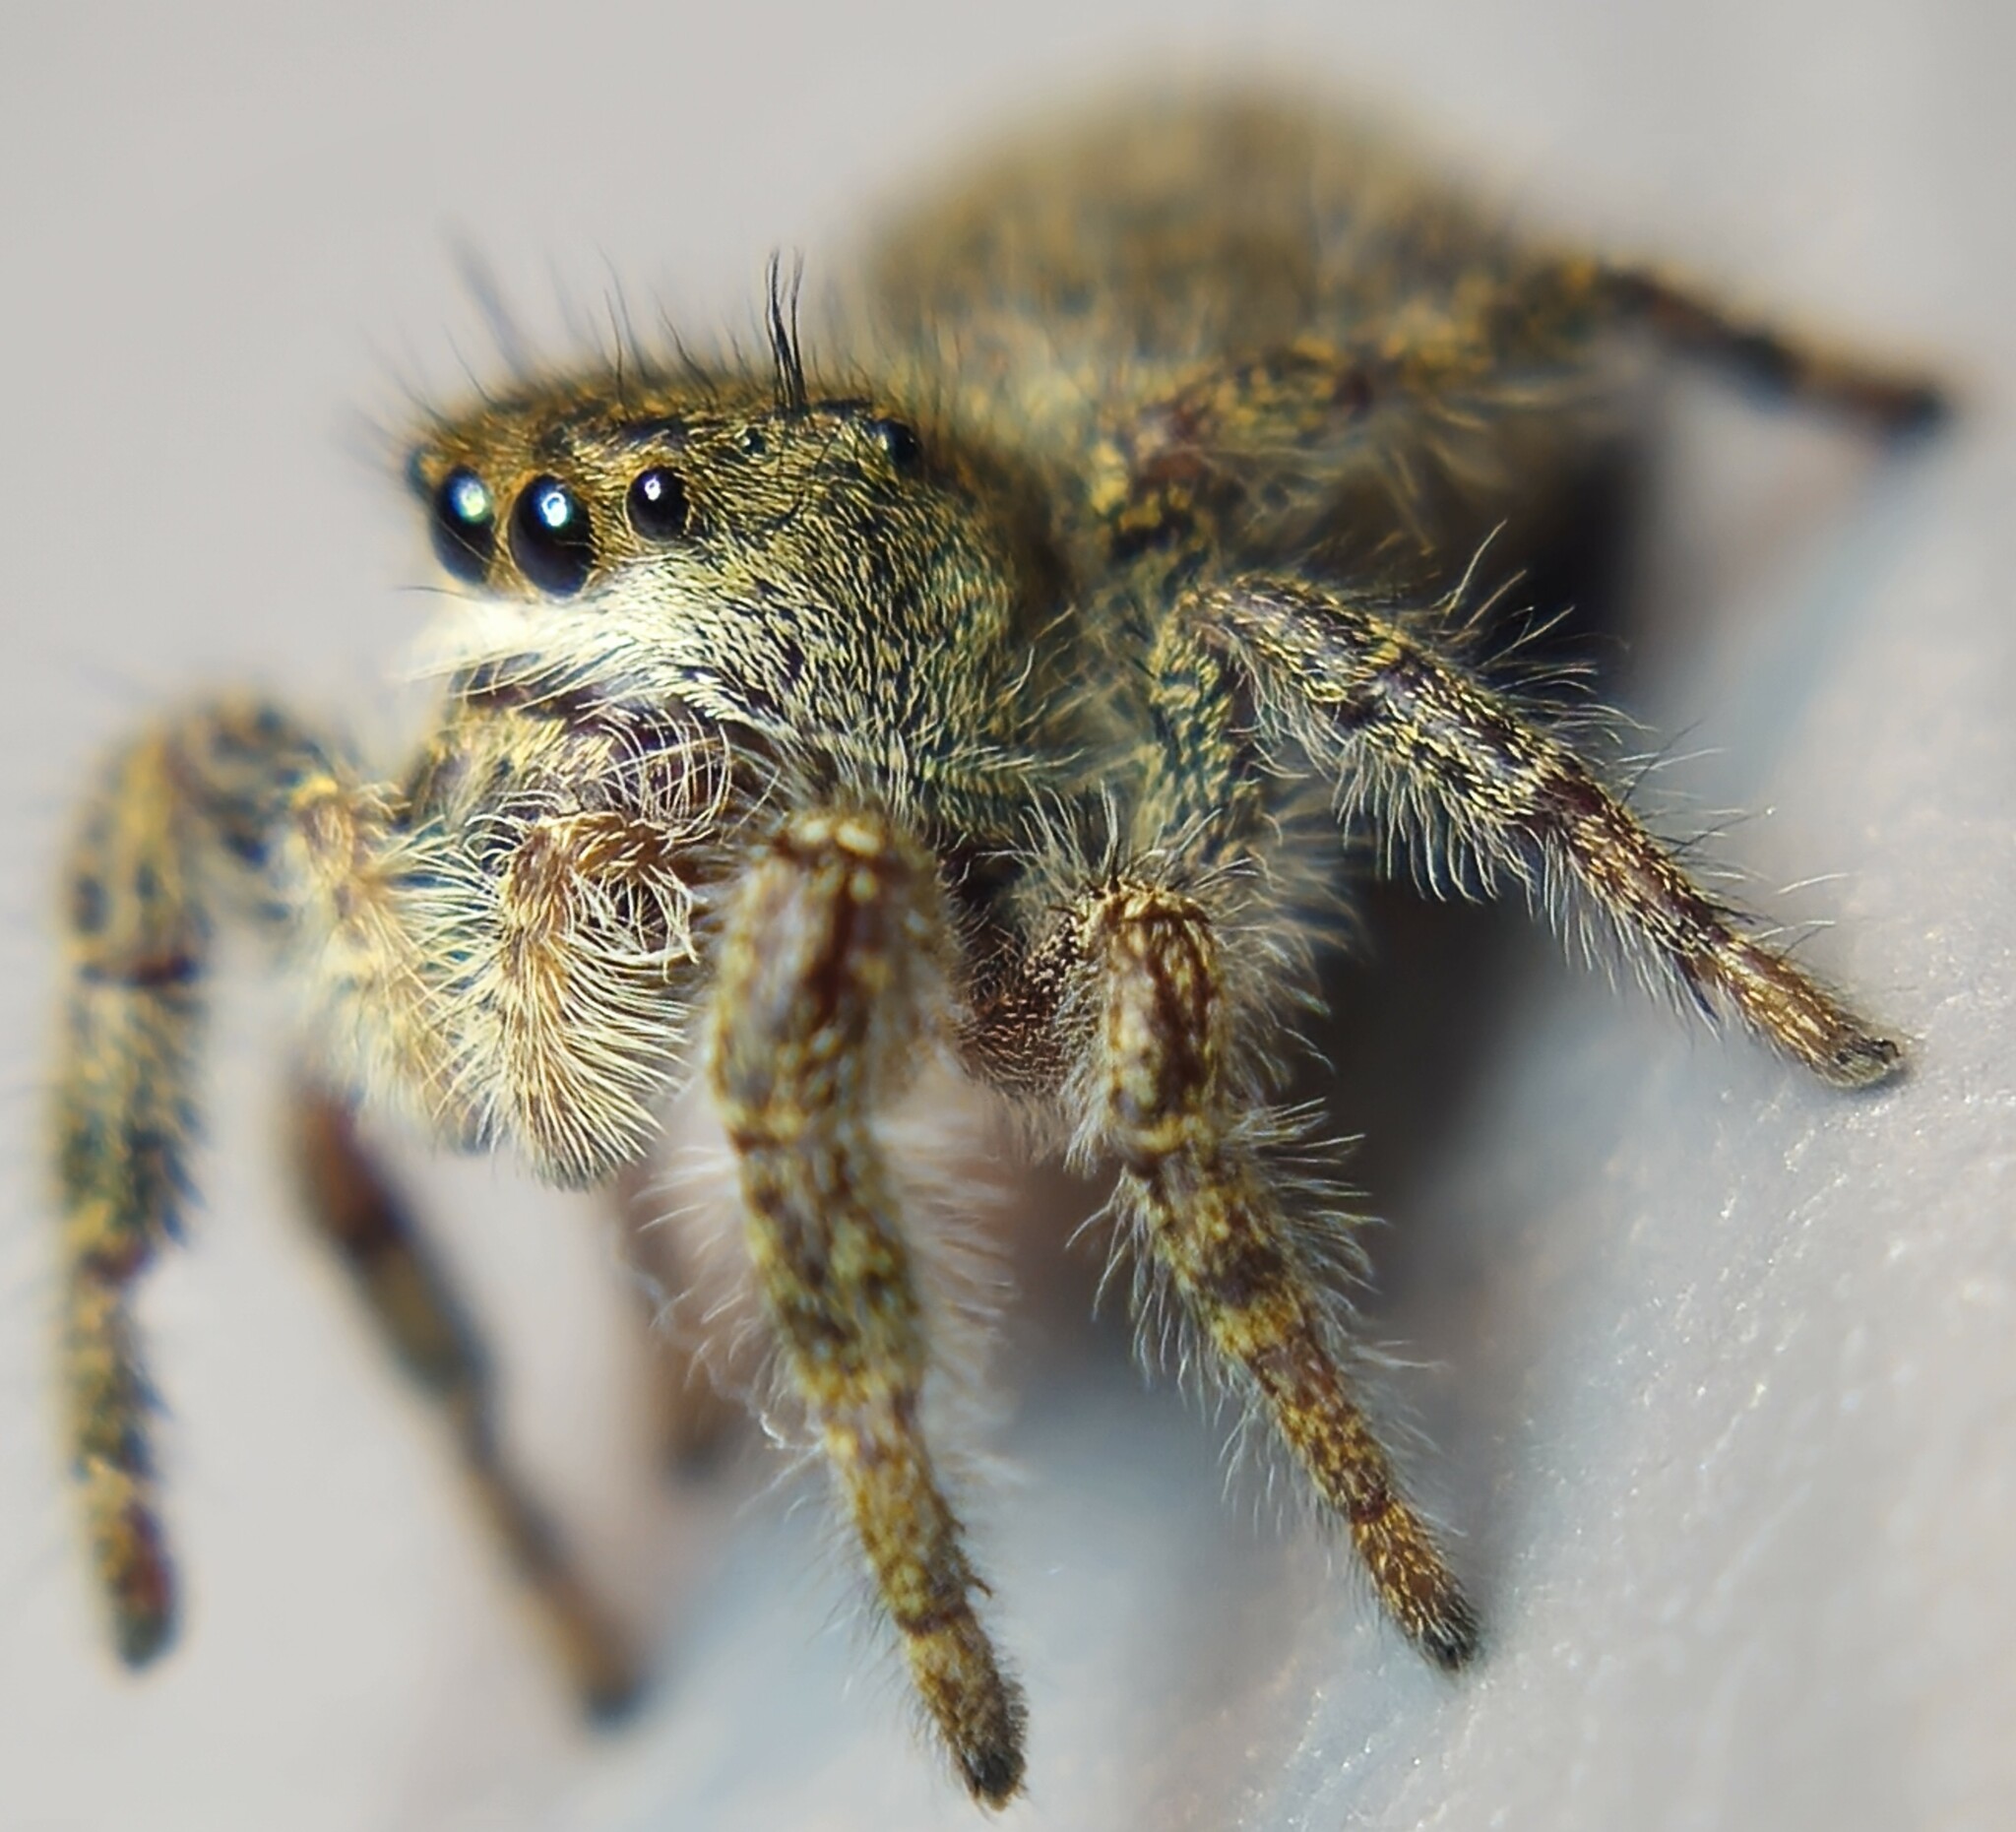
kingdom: Animalia
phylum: Arthropoda
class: Arachnida
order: Araneae
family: Salticidae
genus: Phidippus
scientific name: Phidippus princeps
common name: Grayish jumping spider
